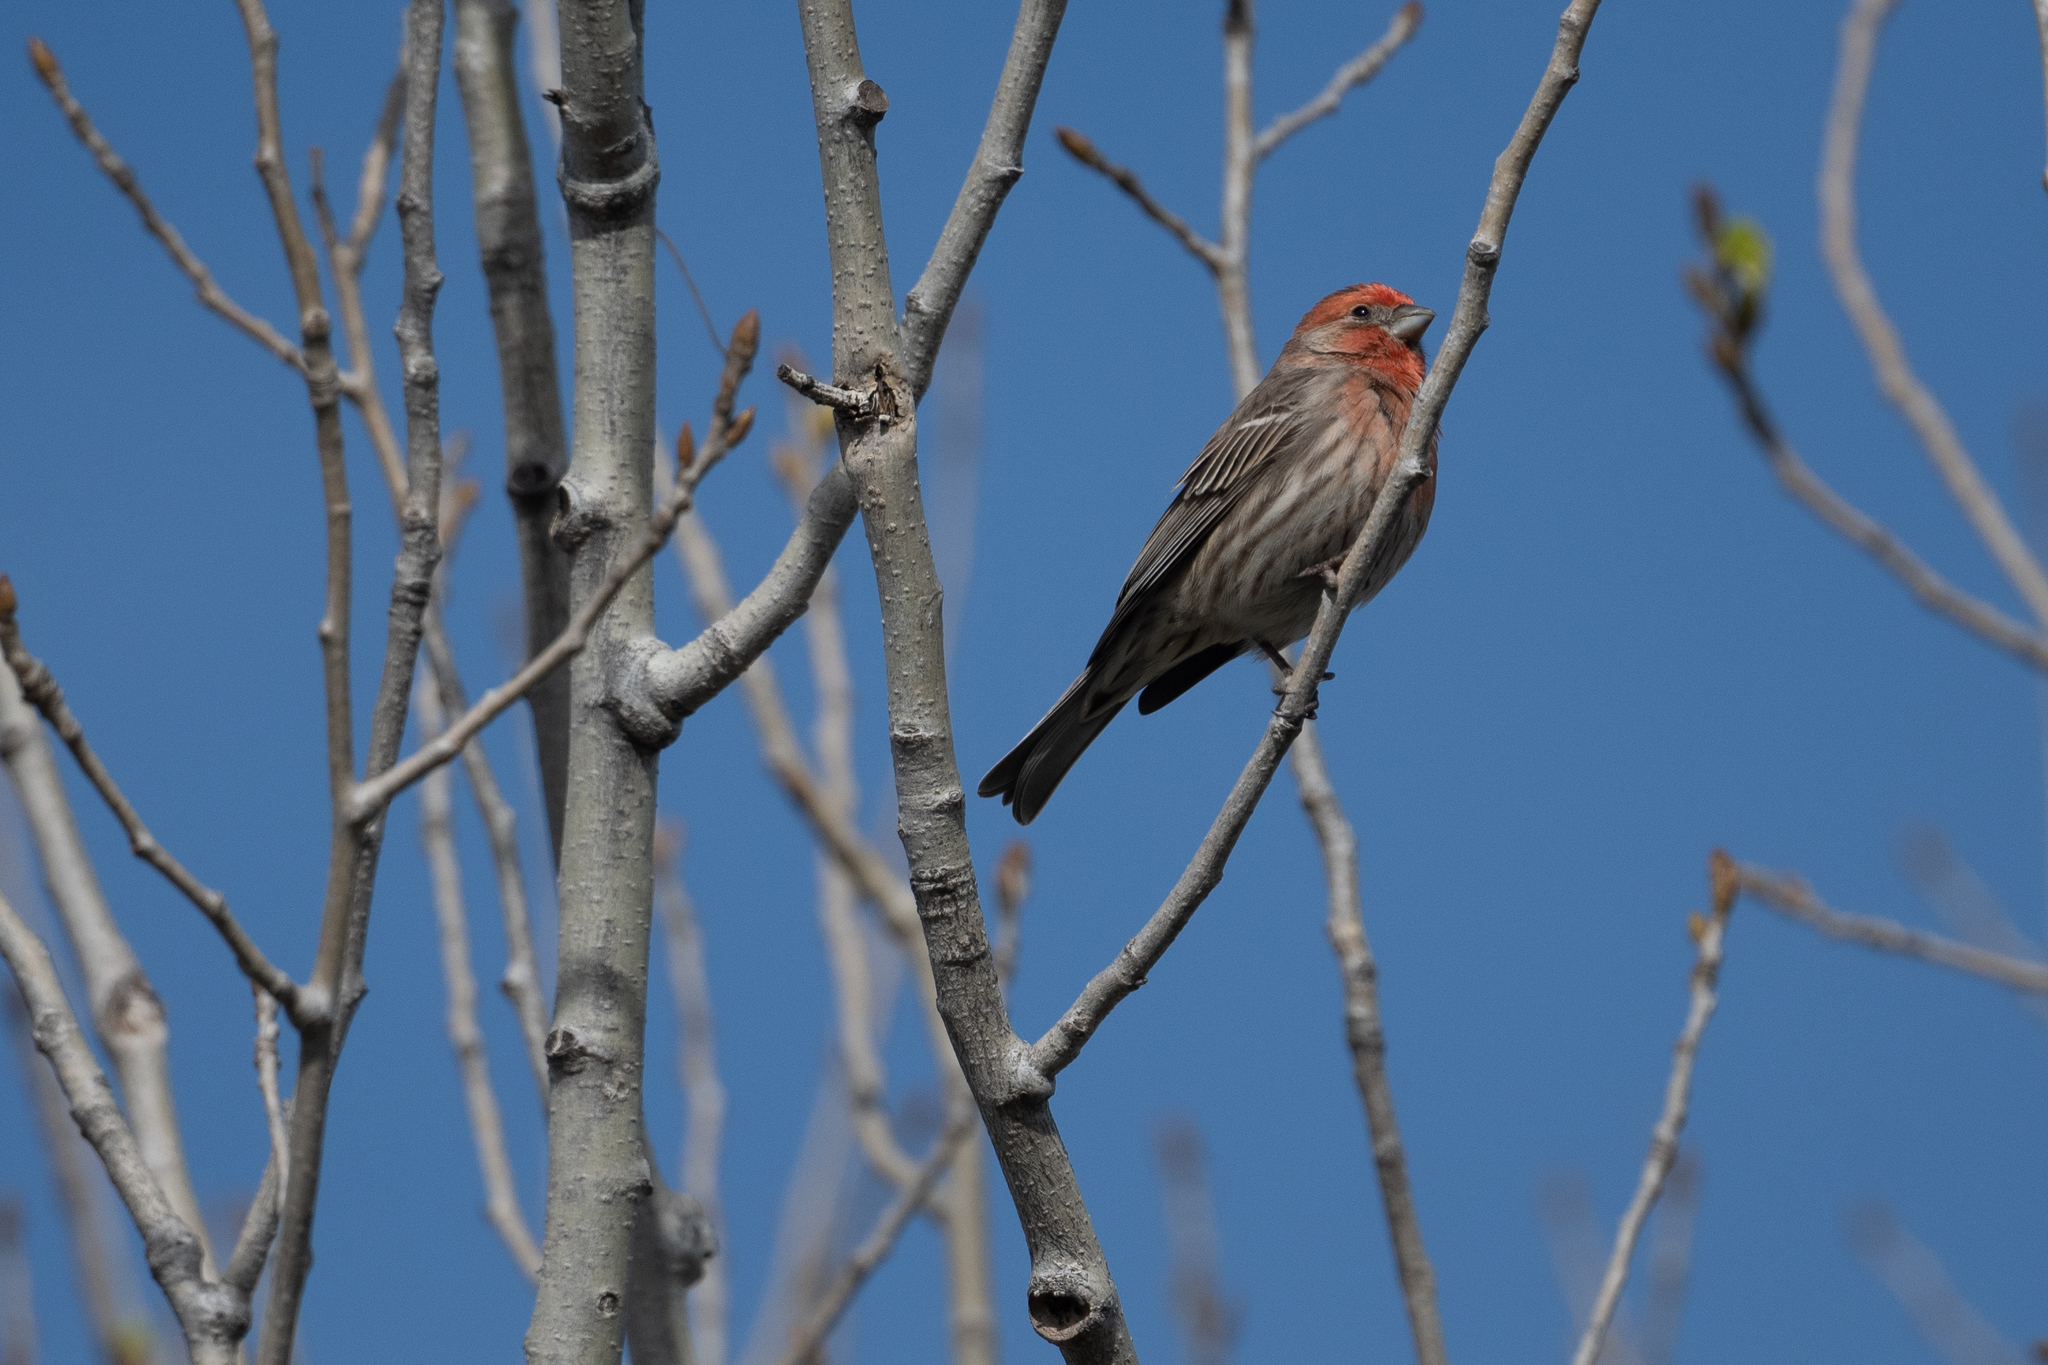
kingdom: Animalia
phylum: Chordata
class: Aves
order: Passeriformes
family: Fringillidae
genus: Haemorhous
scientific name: Haemorhous mexicanus
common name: House finch
